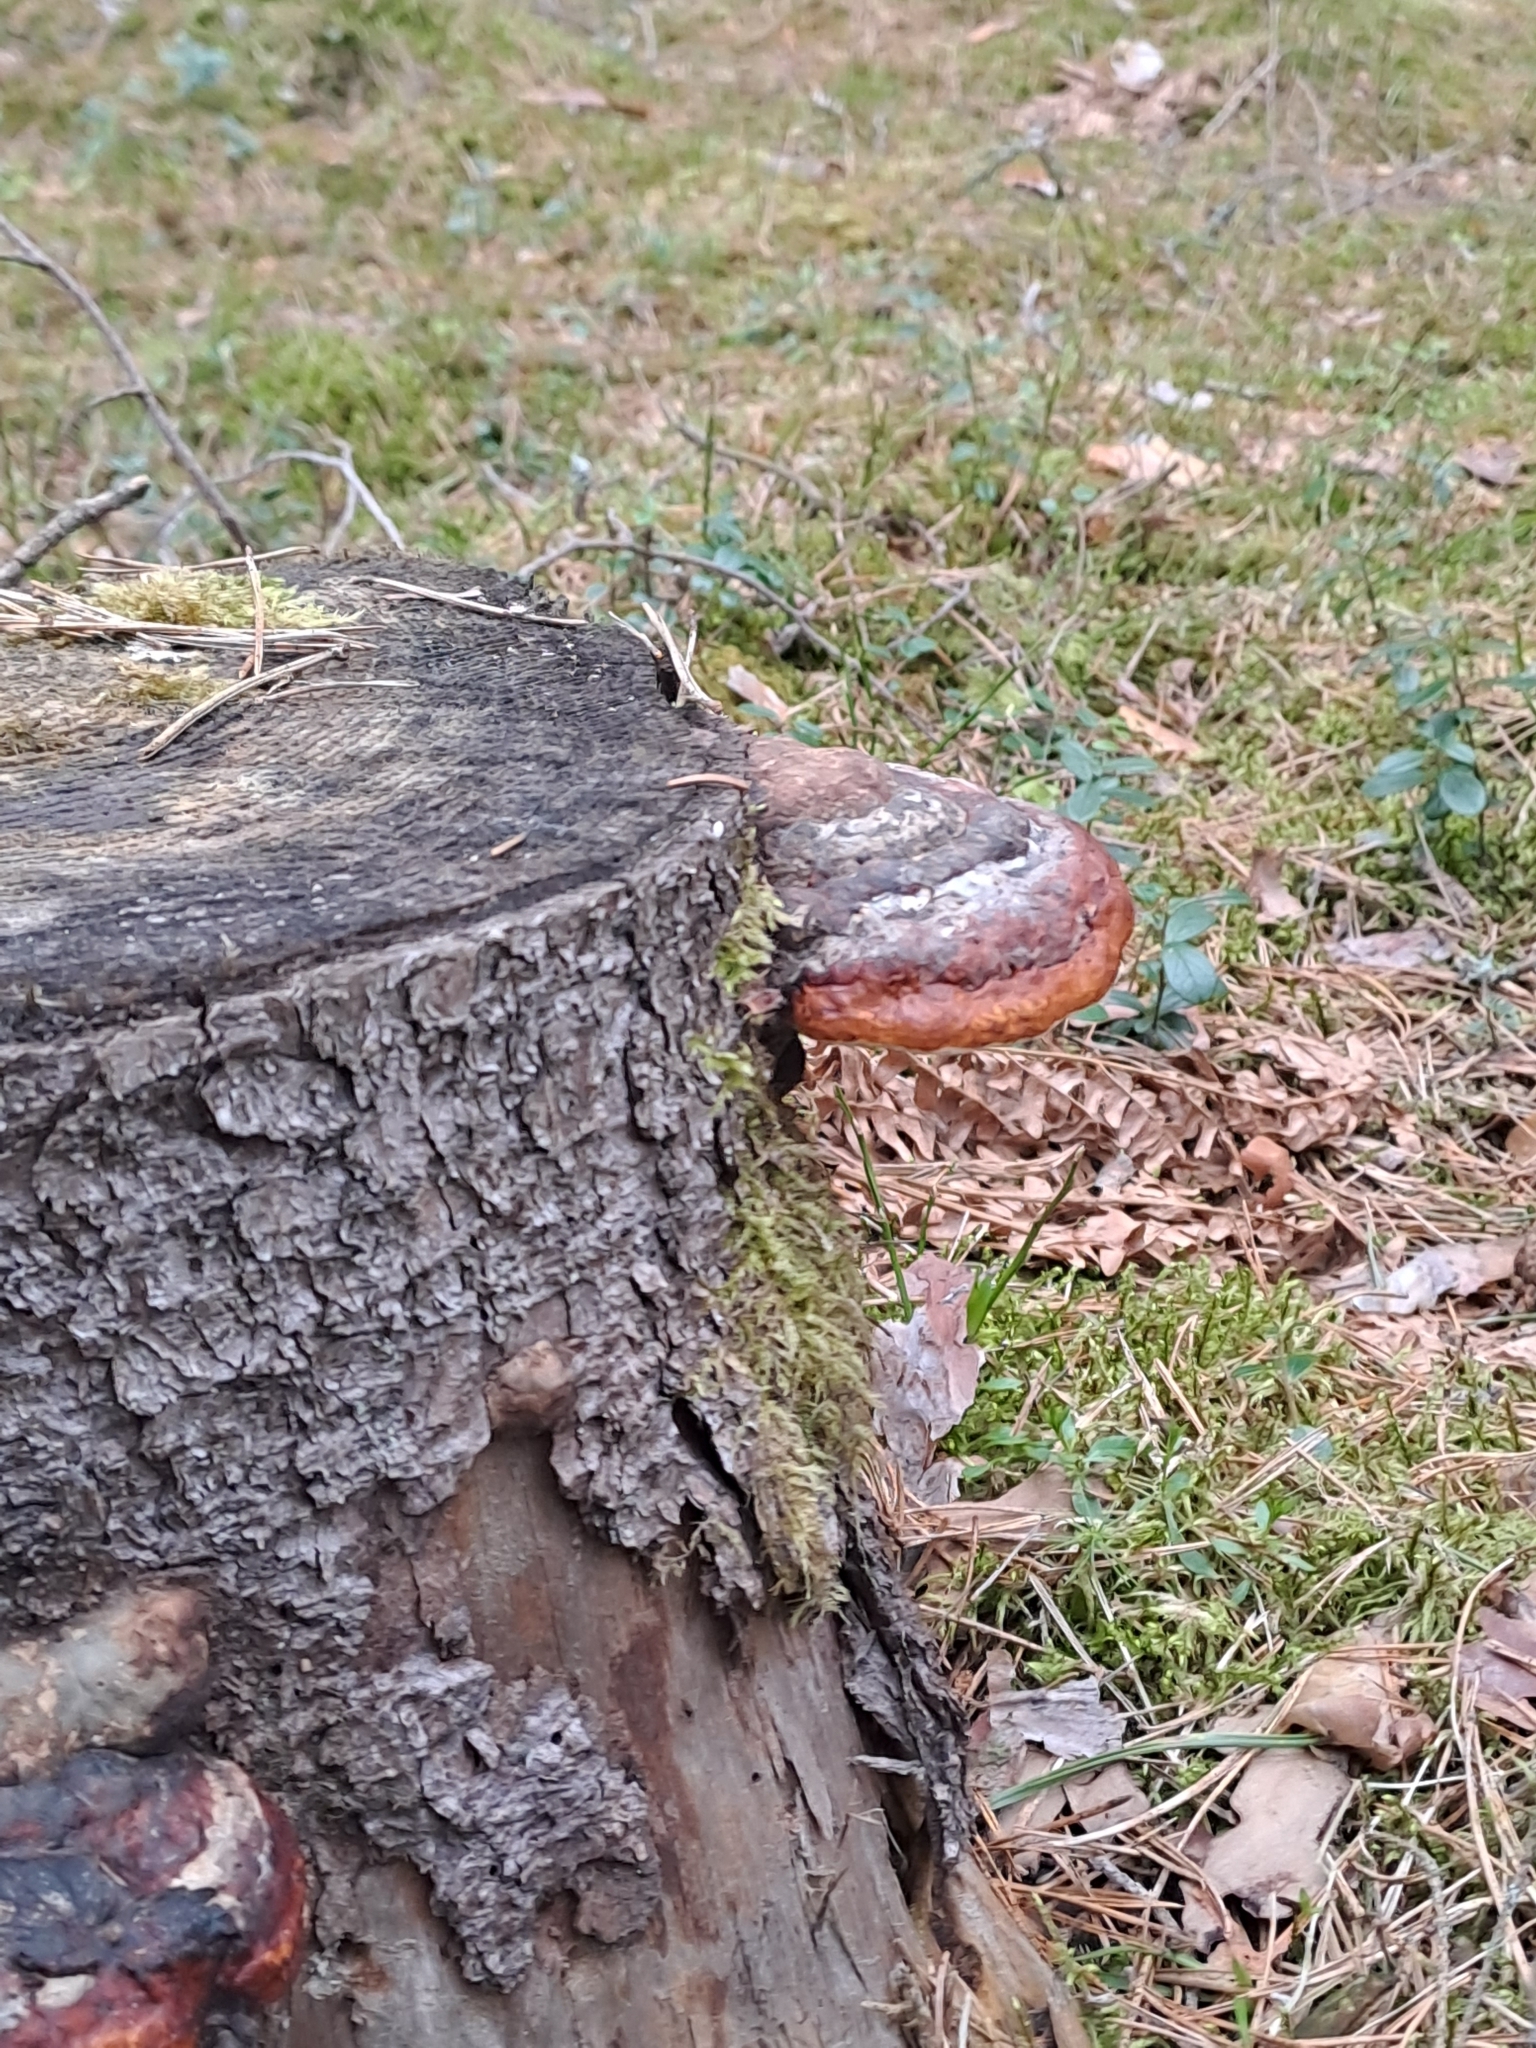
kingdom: Fungi
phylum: Basidiomycota
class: Agaricomycetes
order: Polyporales
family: Fomitopsidaceae
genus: Fomitopsis
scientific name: Fomitopsis pinicola
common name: Red-belted bracket
